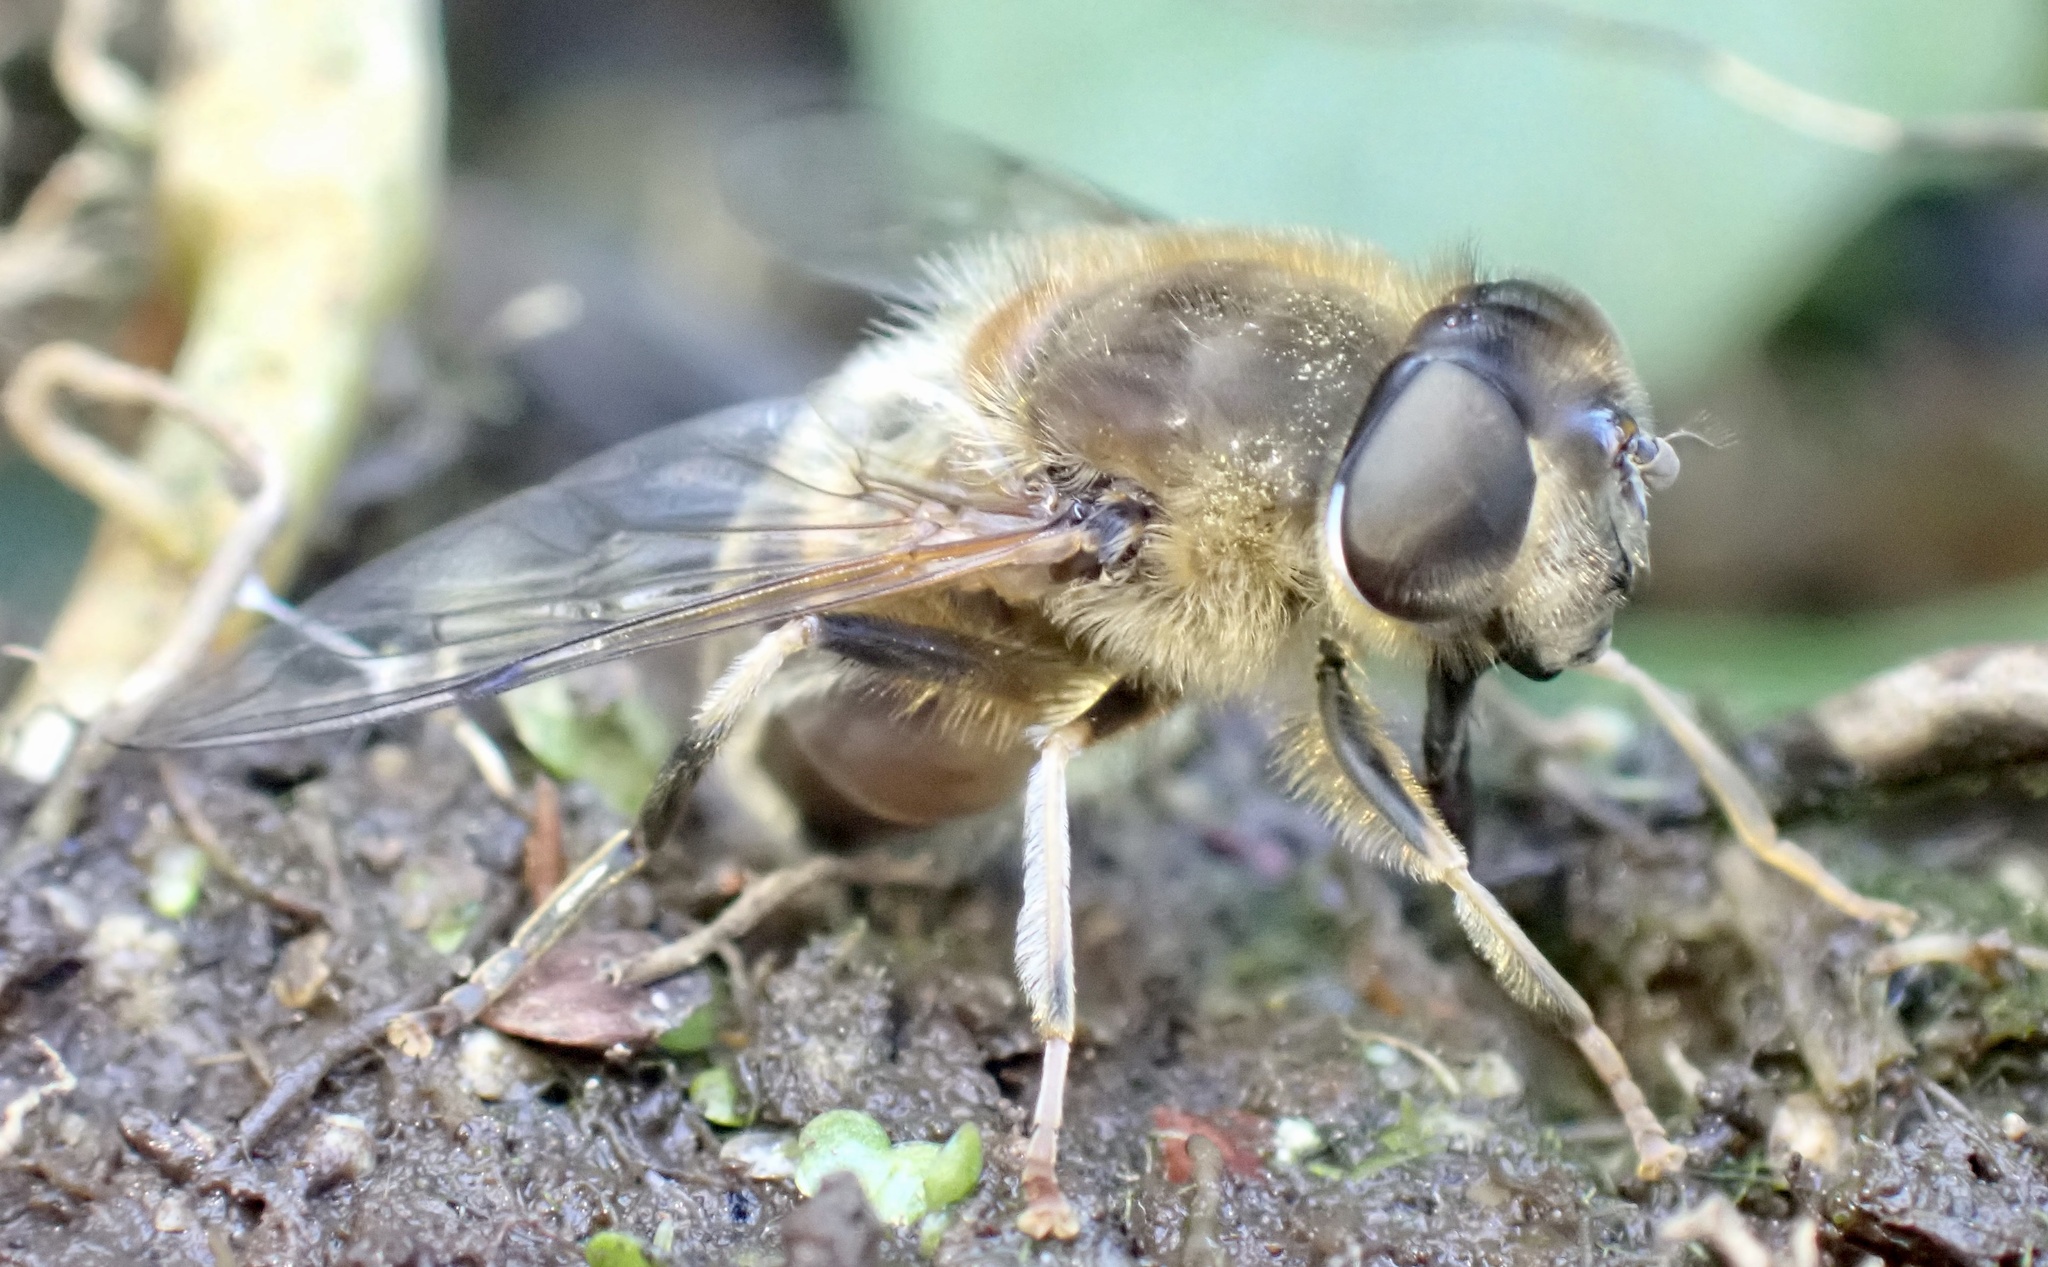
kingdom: Animalia
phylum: Arthropoda
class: Insecta
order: Diptera
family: Syrphidae
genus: Eristalis
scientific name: Eristalis pertinax
